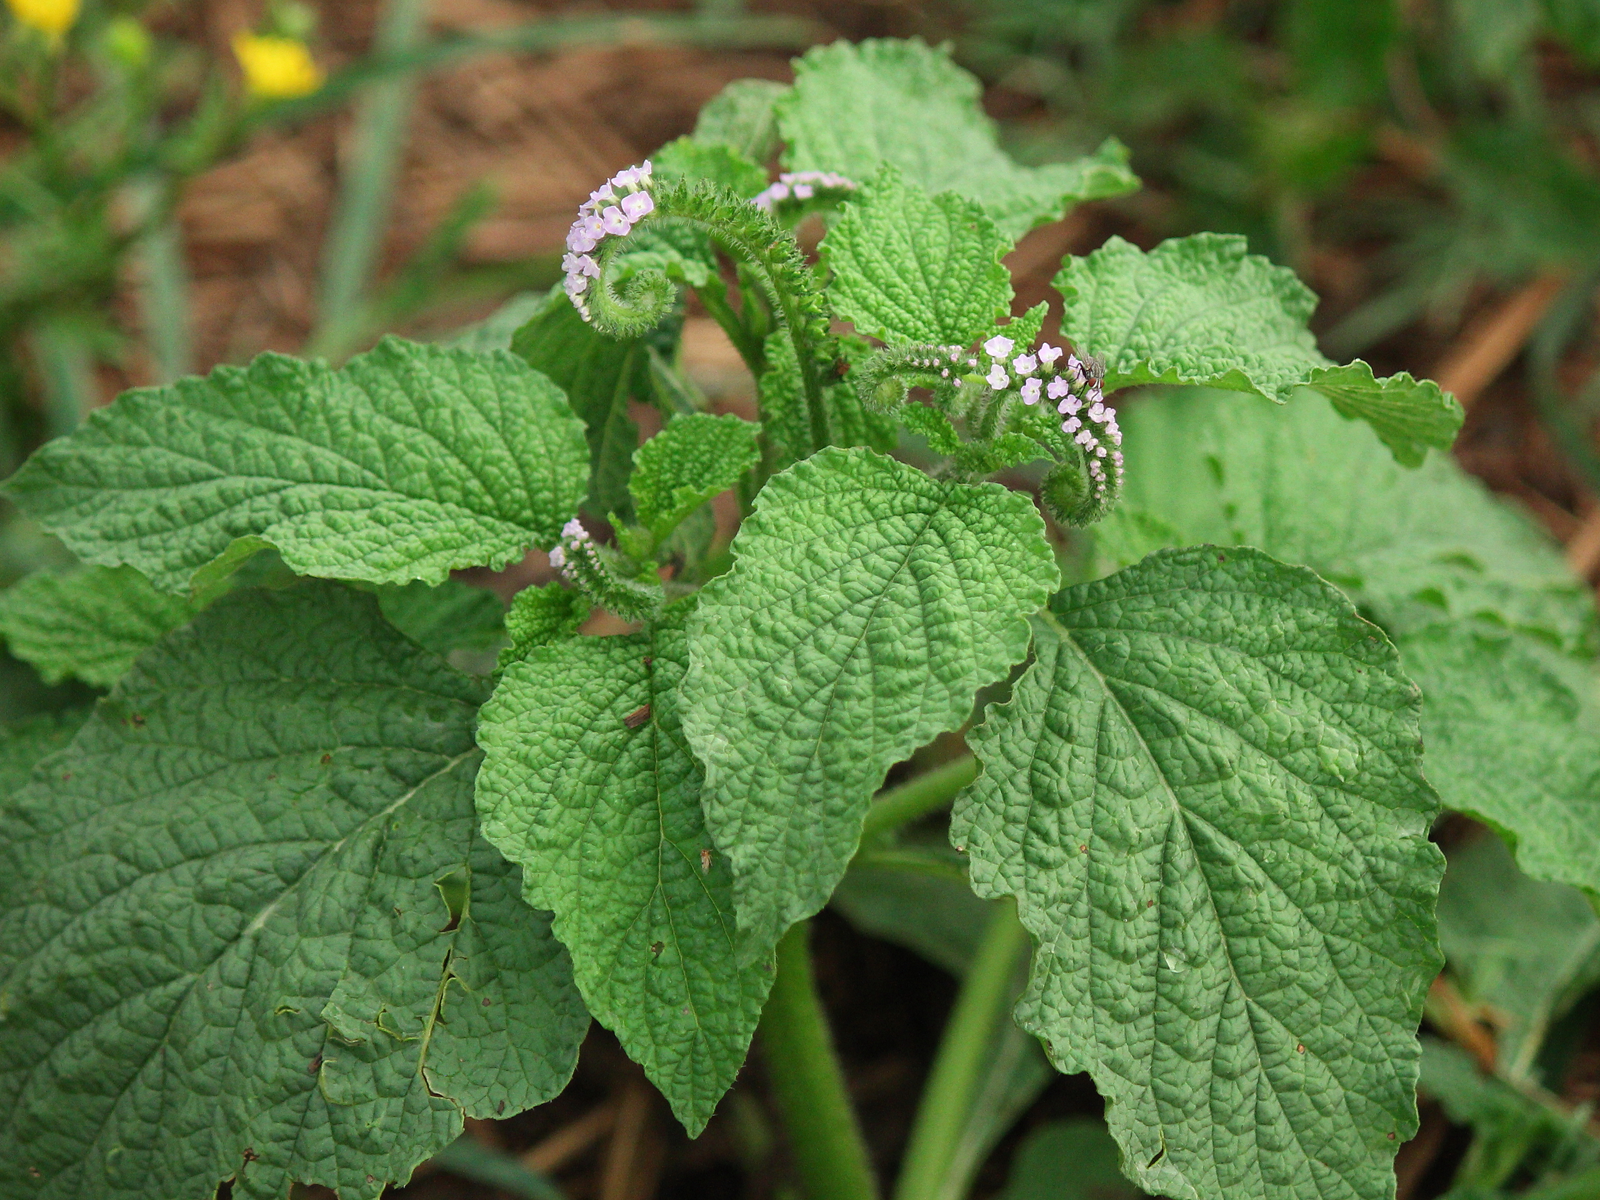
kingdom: Plantae
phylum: Tracheophyta
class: Magnoliopsida
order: Boraginales
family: Heliotropiaceae
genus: Heliotropium
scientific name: Heliotropium indicum
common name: Indian heliotrope
